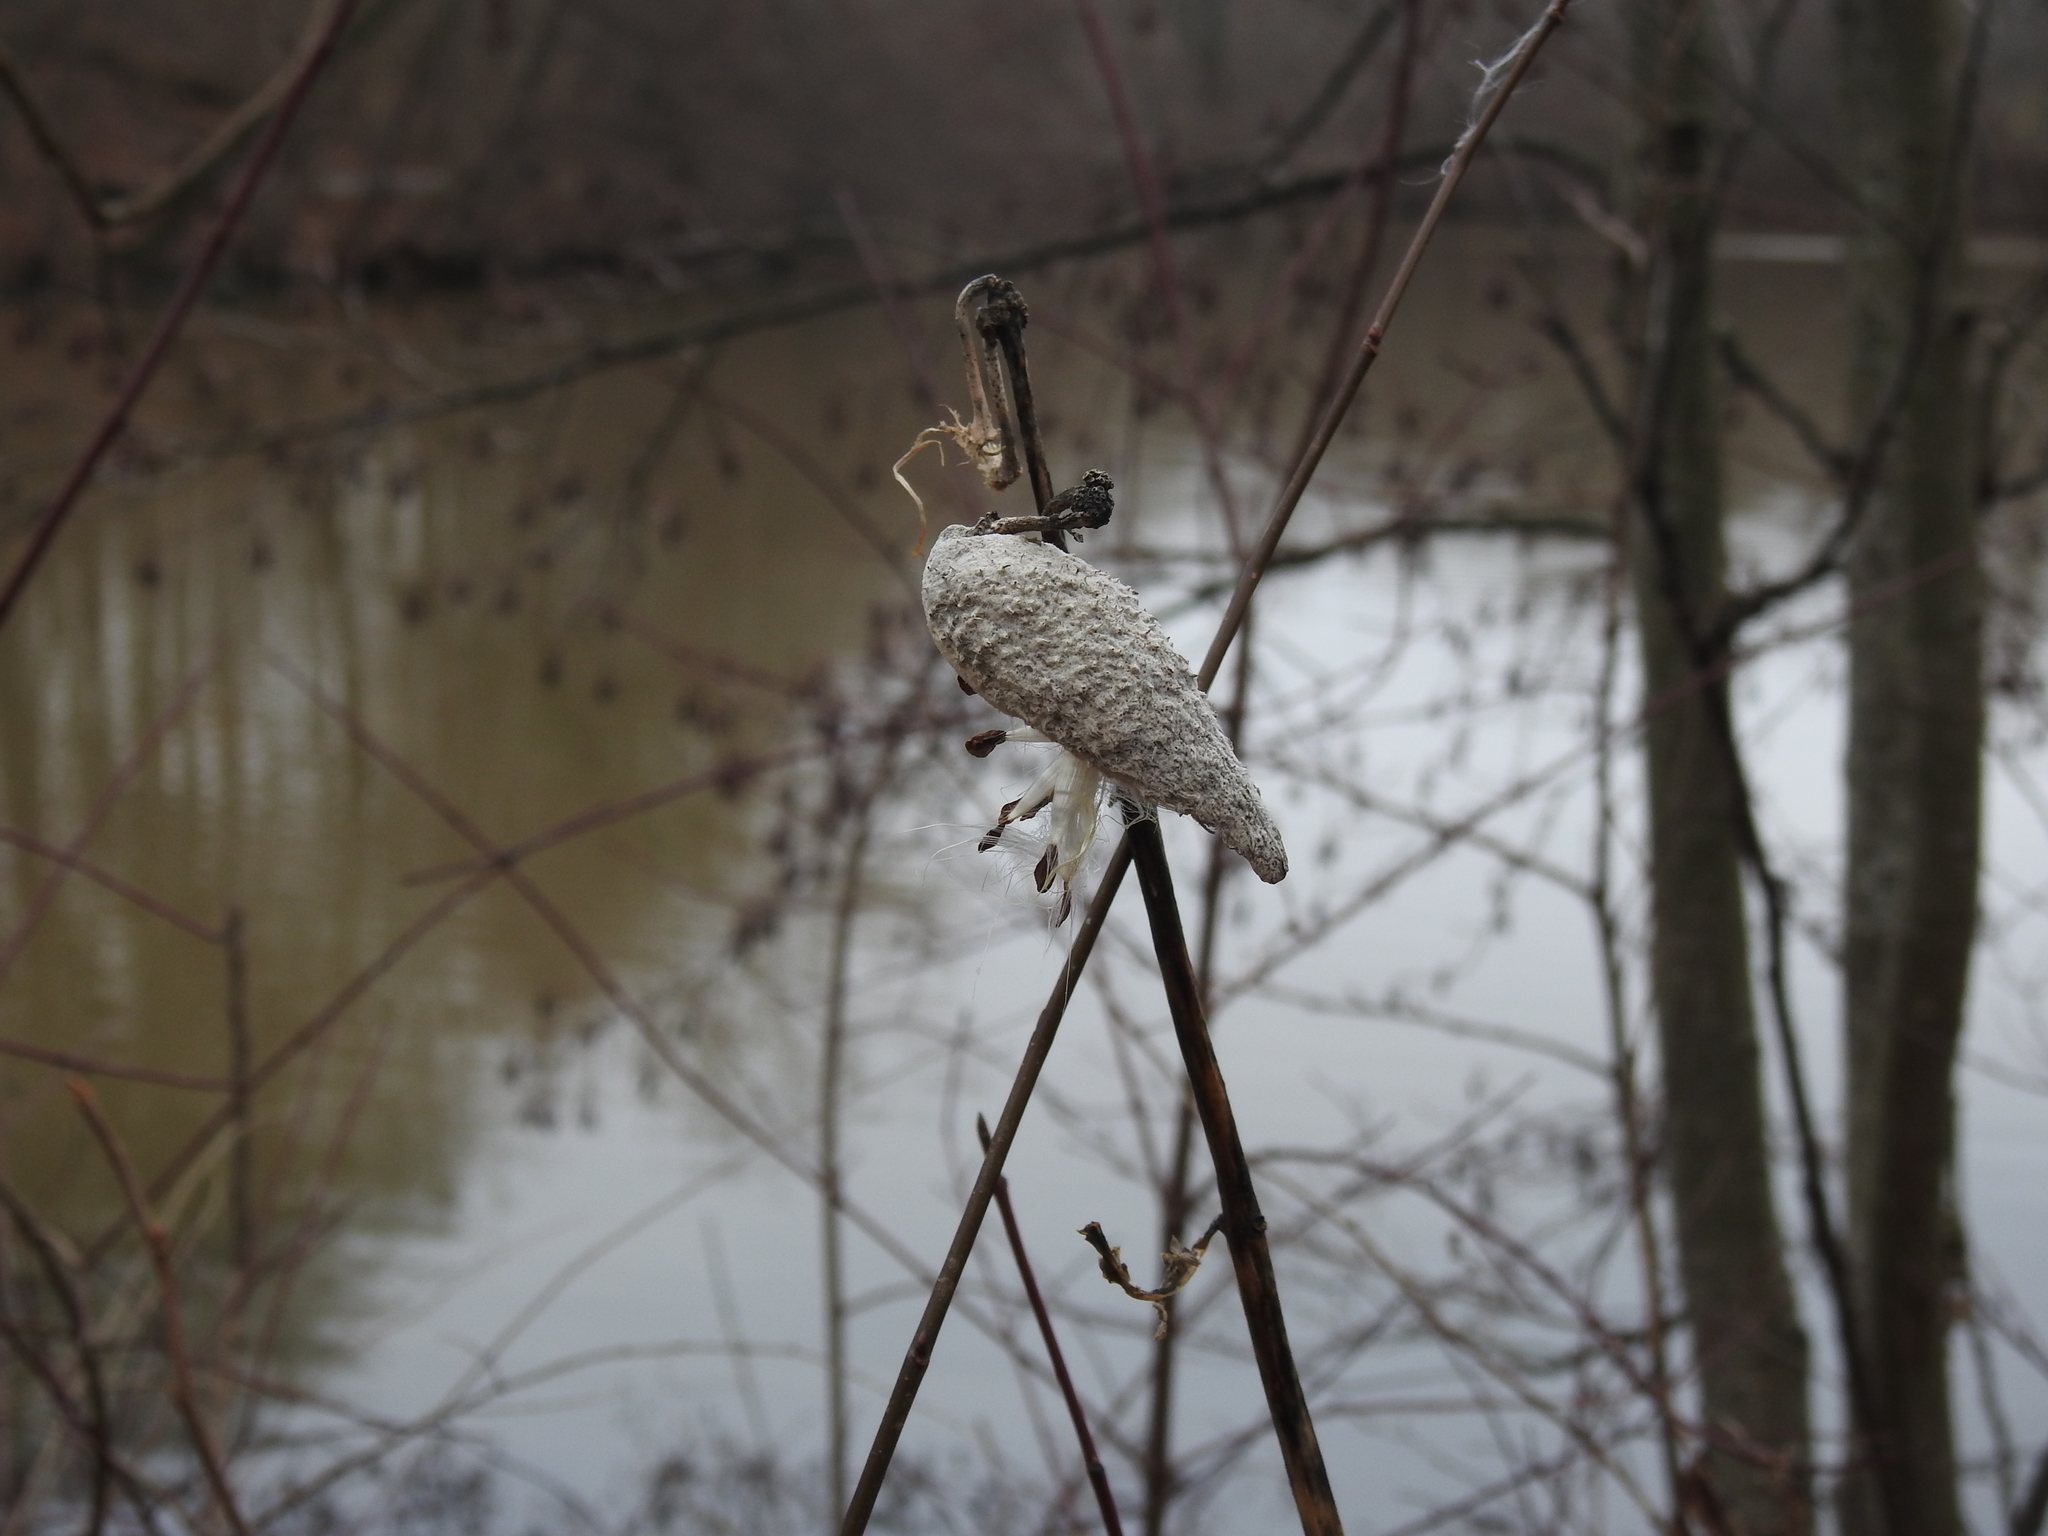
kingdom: Plantae
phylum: Tracheophyta
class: Magnoliopsida
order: Gentianales
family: Apocynaceae
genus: Asclepias
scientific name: Asclepias syriaca
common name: Common milkweed
